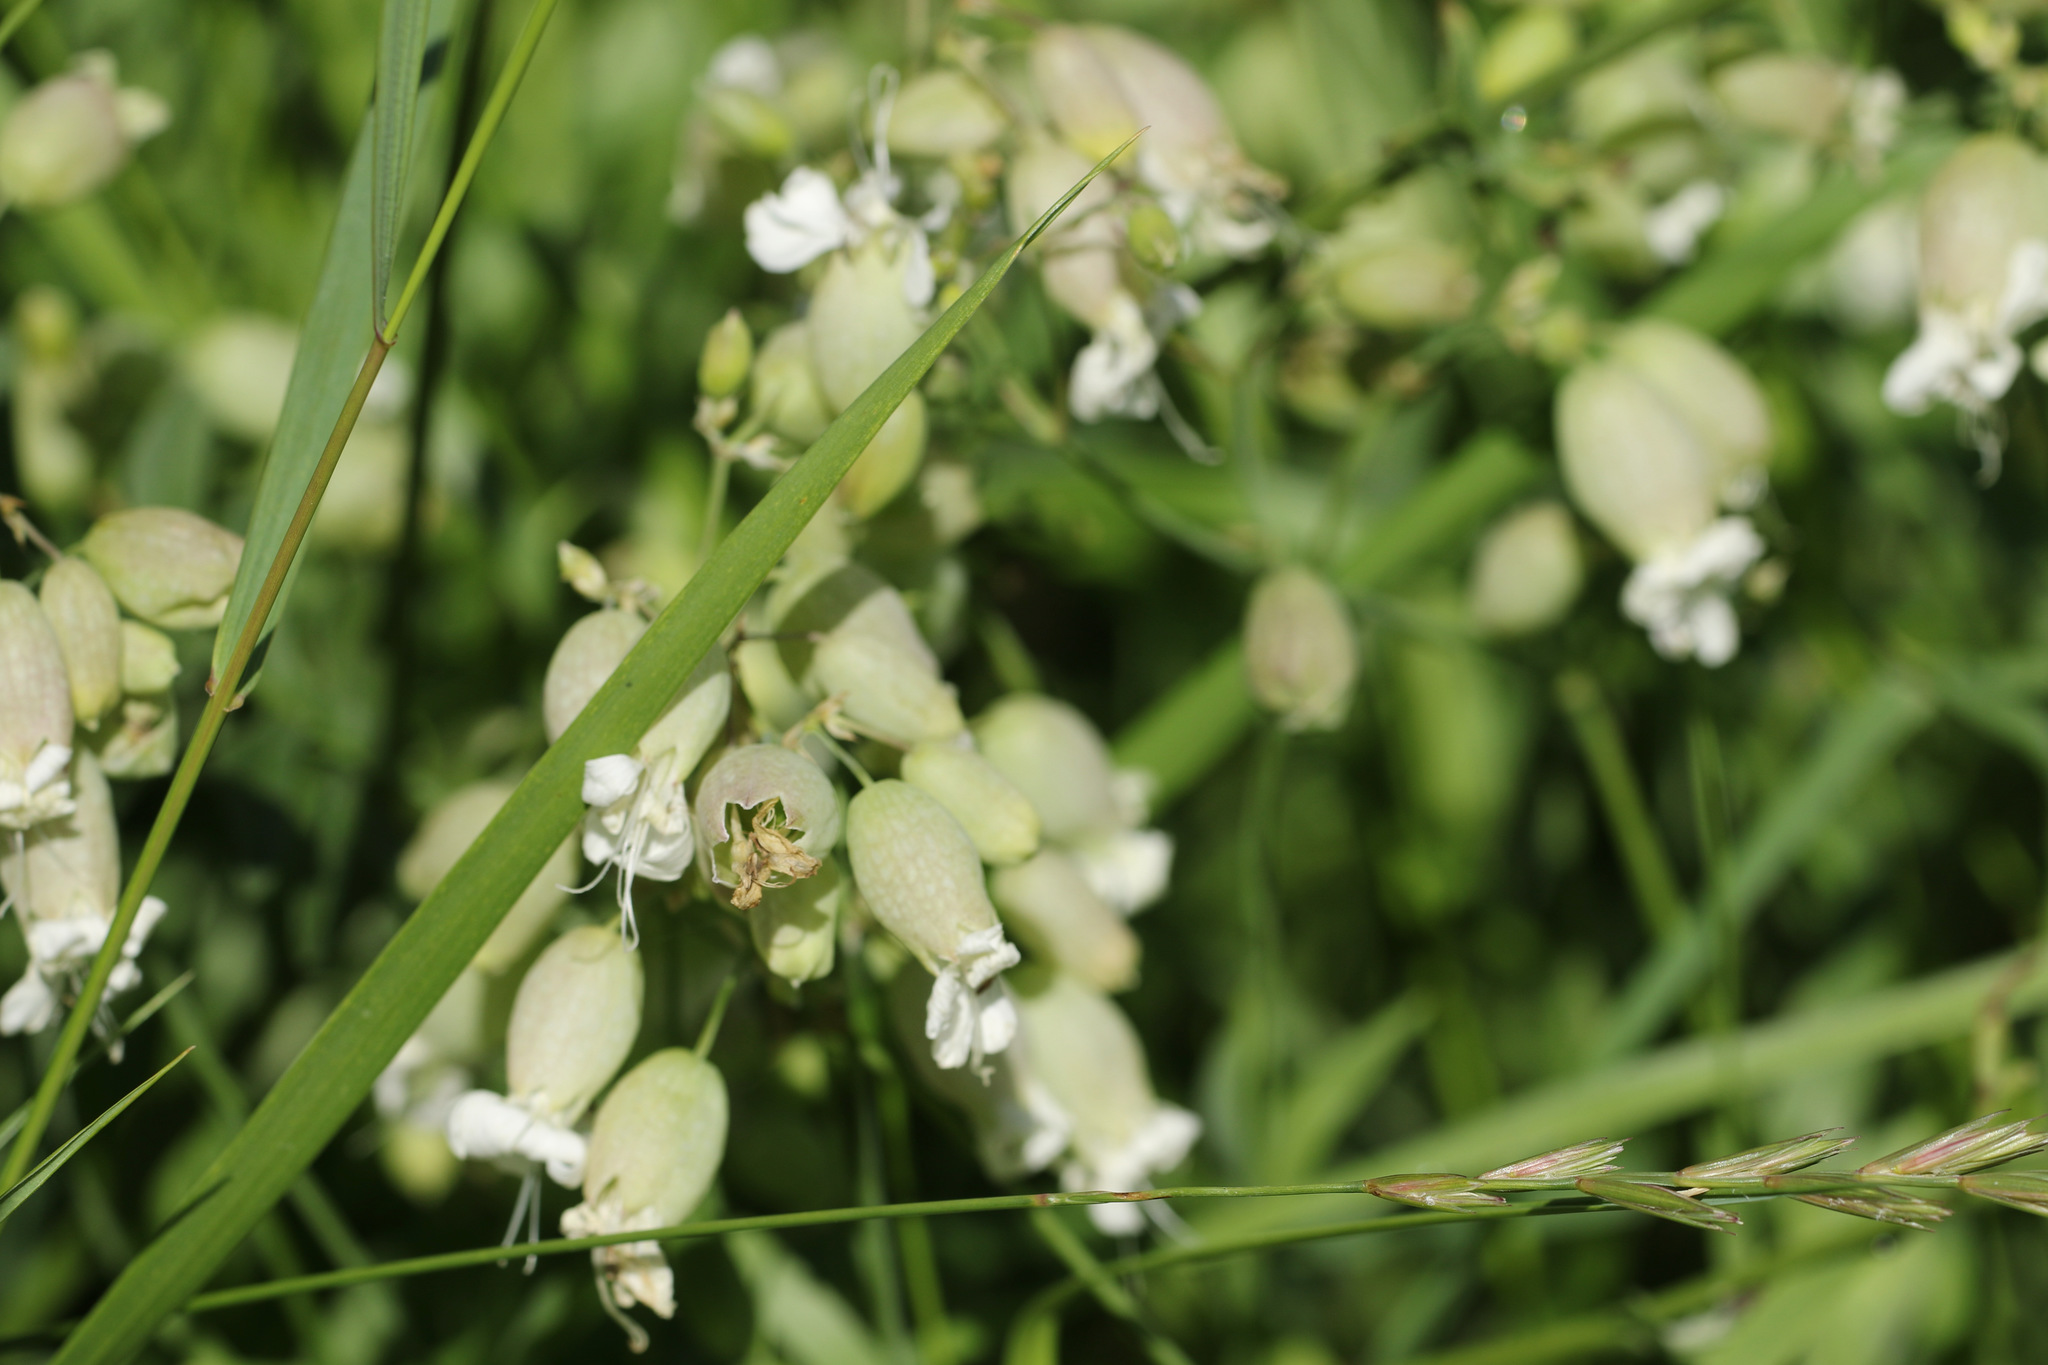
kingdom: Plantae
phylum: Tracheophyta
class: Magnoliopsida
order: Caryophyllales
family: Caryophyllaceae
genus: Silene
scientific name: Silene vulgaris
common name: Bladder campion
